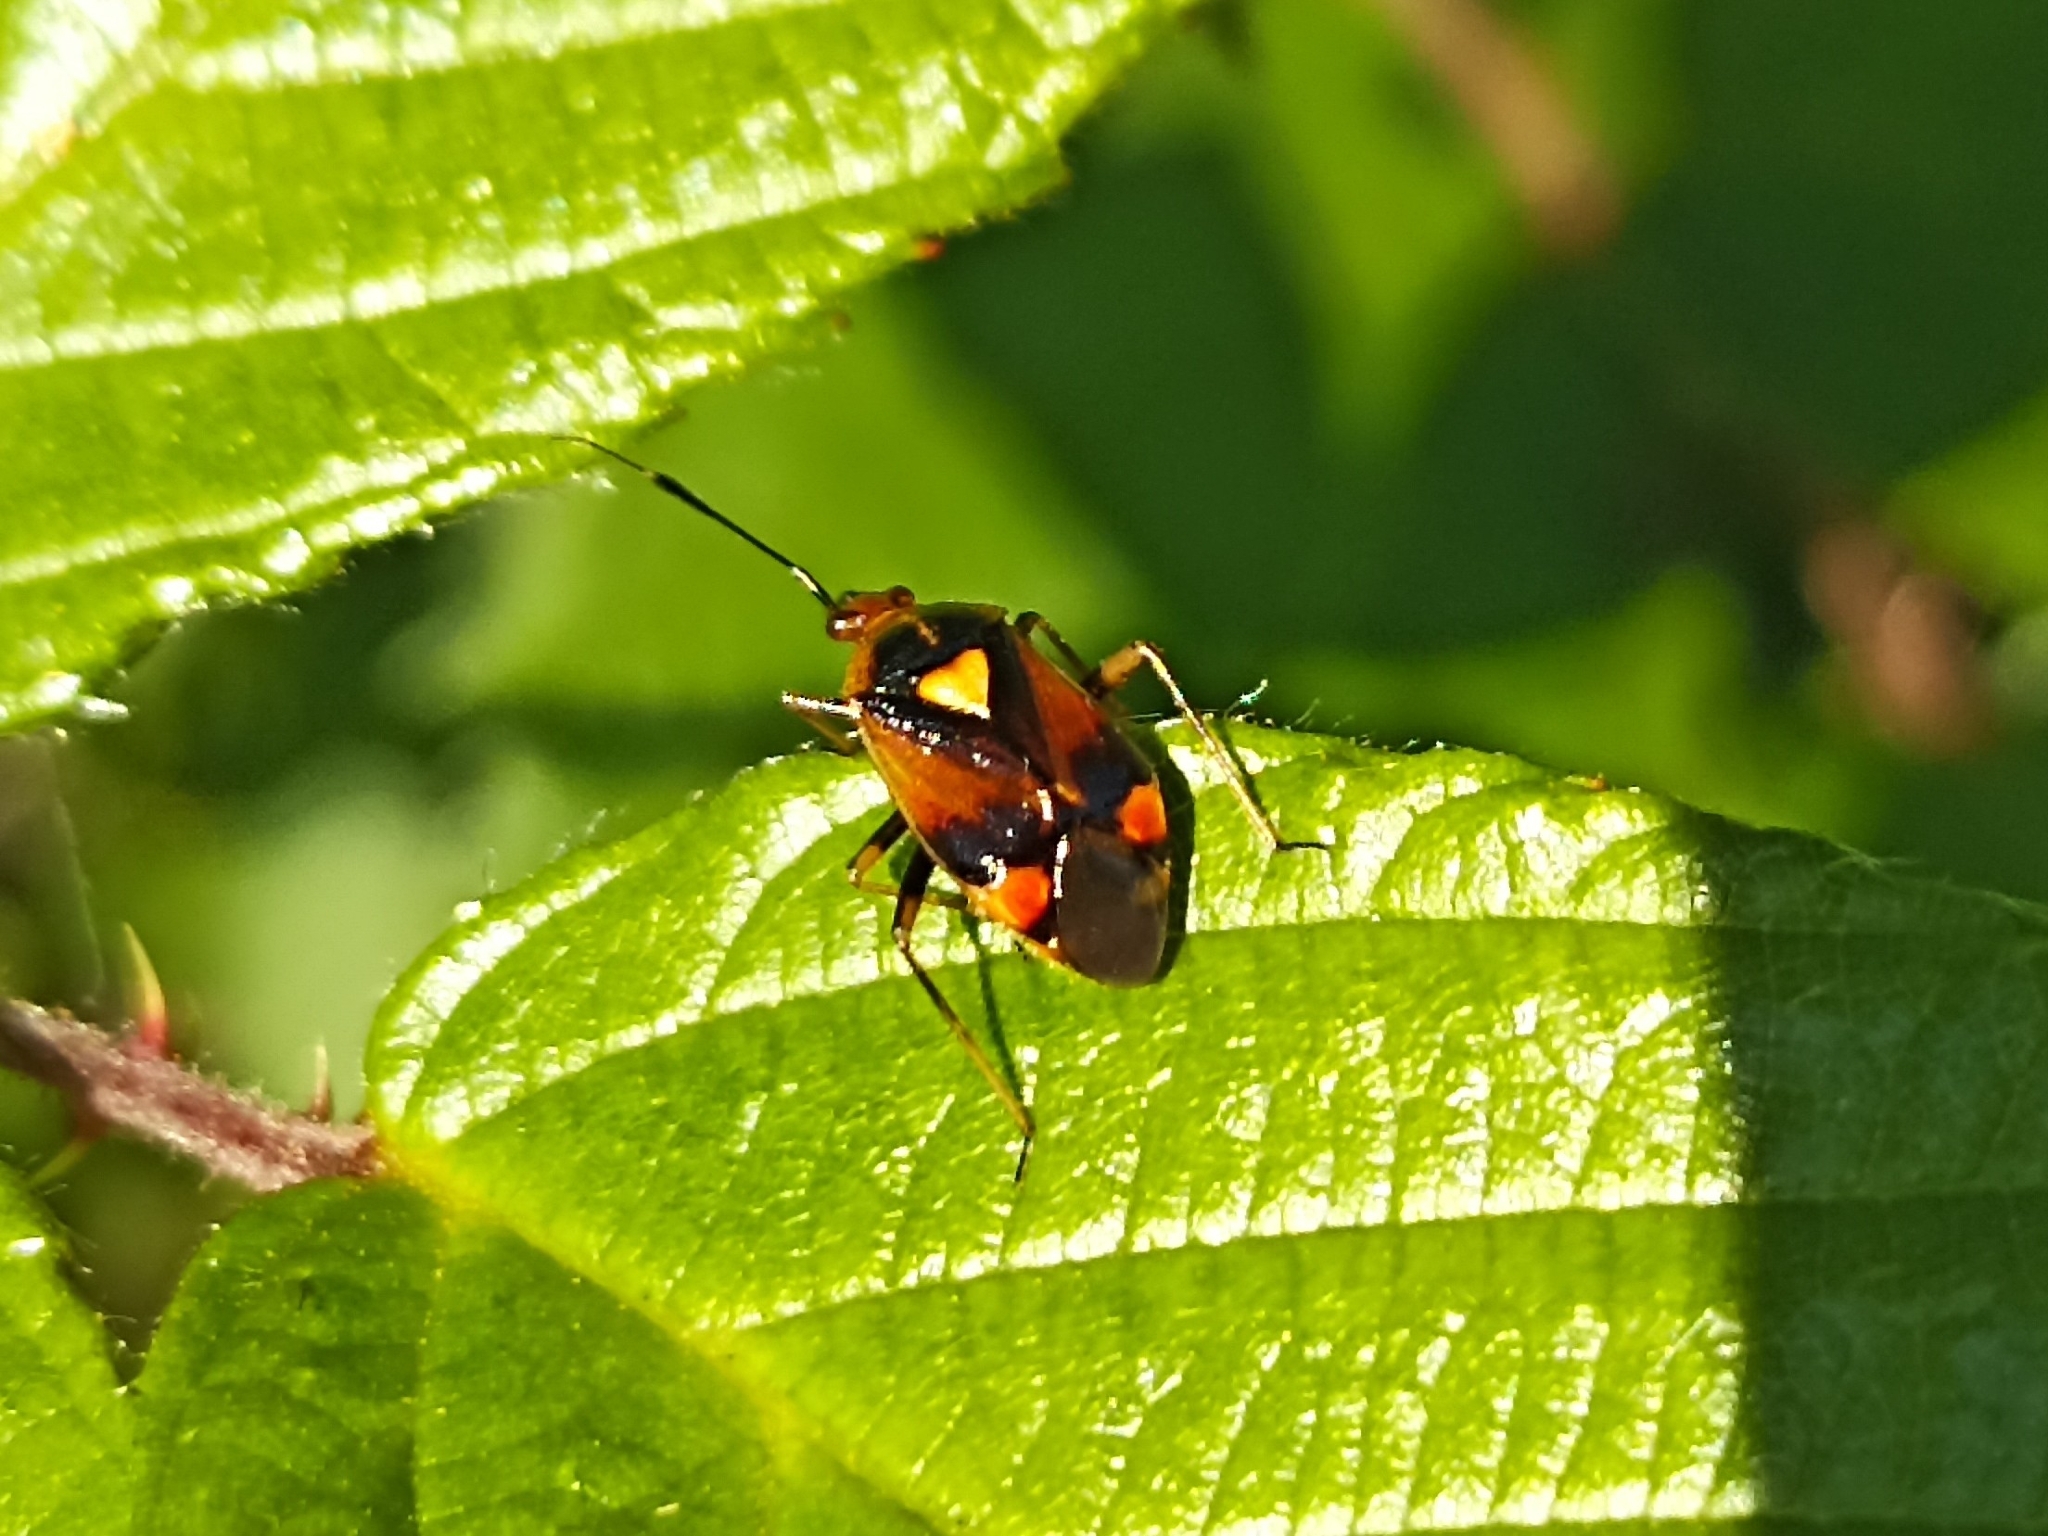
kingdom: Animalia
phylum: Arthropoda
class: Insecta
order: Hemiptera
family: Miridae
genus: Deraeocoris
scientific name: Deraeocoris ruber
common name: Plant bug
